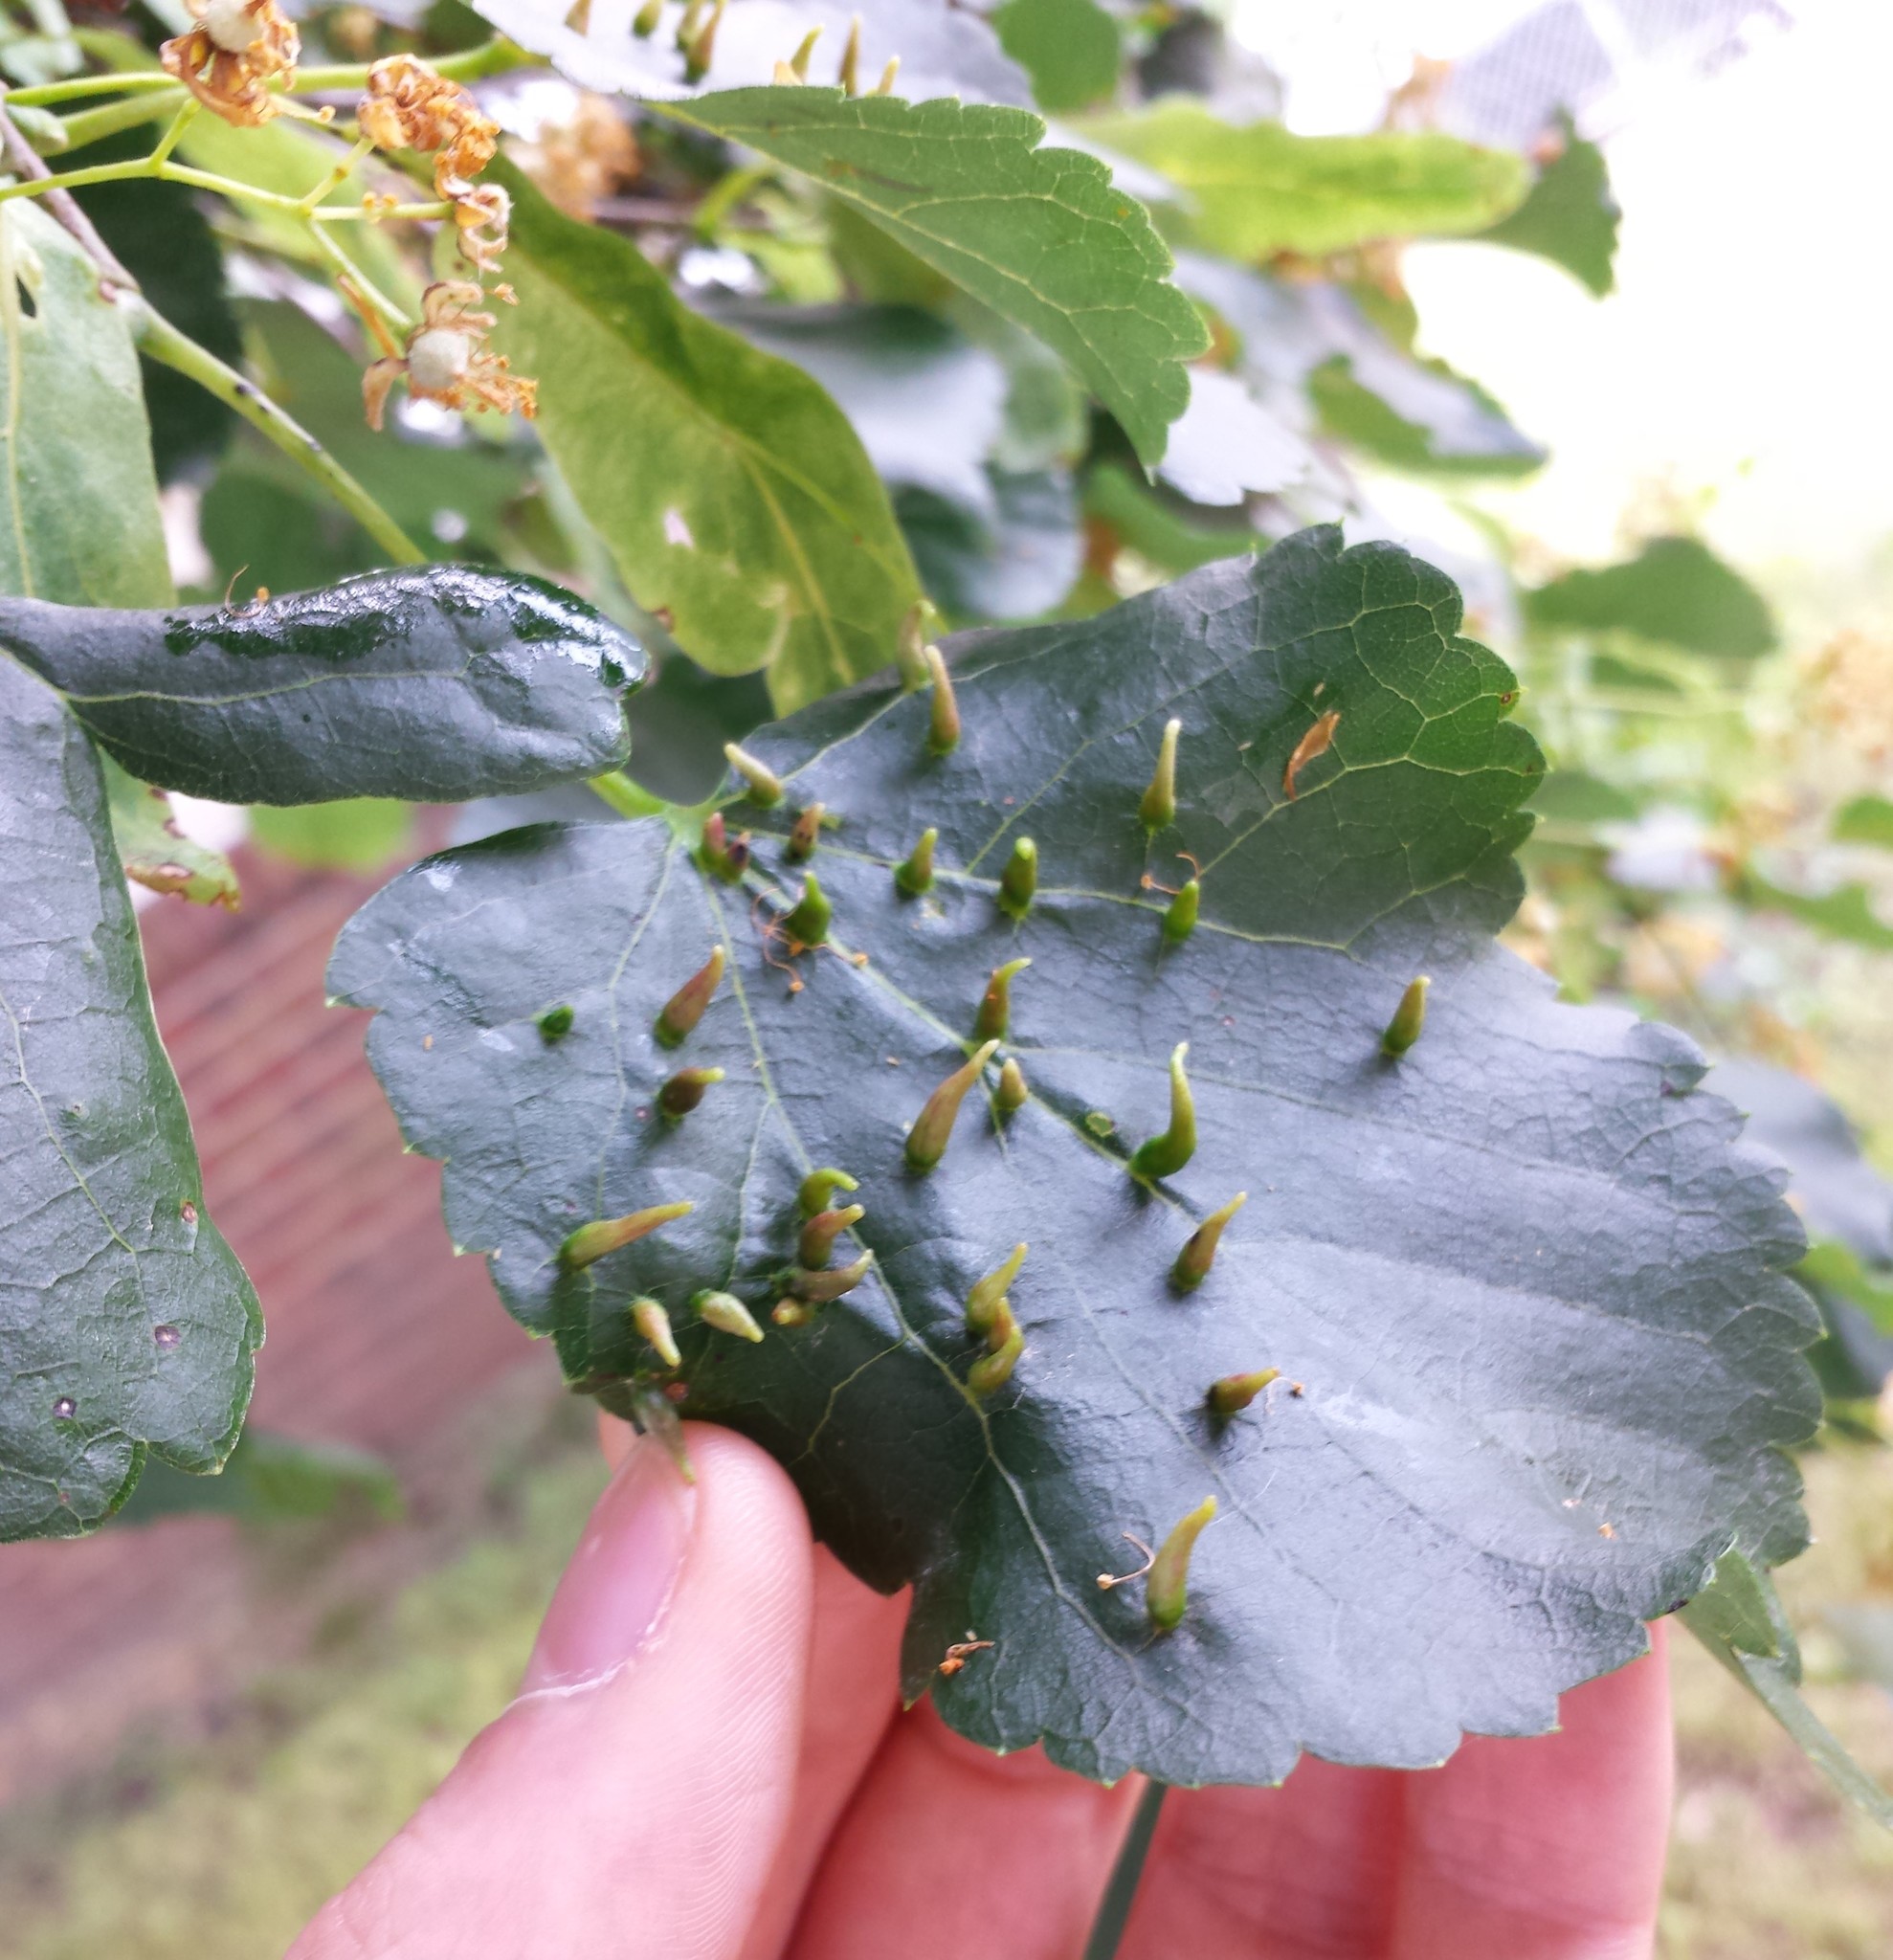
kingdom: Animalia
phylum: Arthropoda
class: Arachnida
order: Trombidiformes
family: Eriophyidae
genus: Eriophyes
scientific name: Eriophyes tiliae
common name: Red nail gall mite
